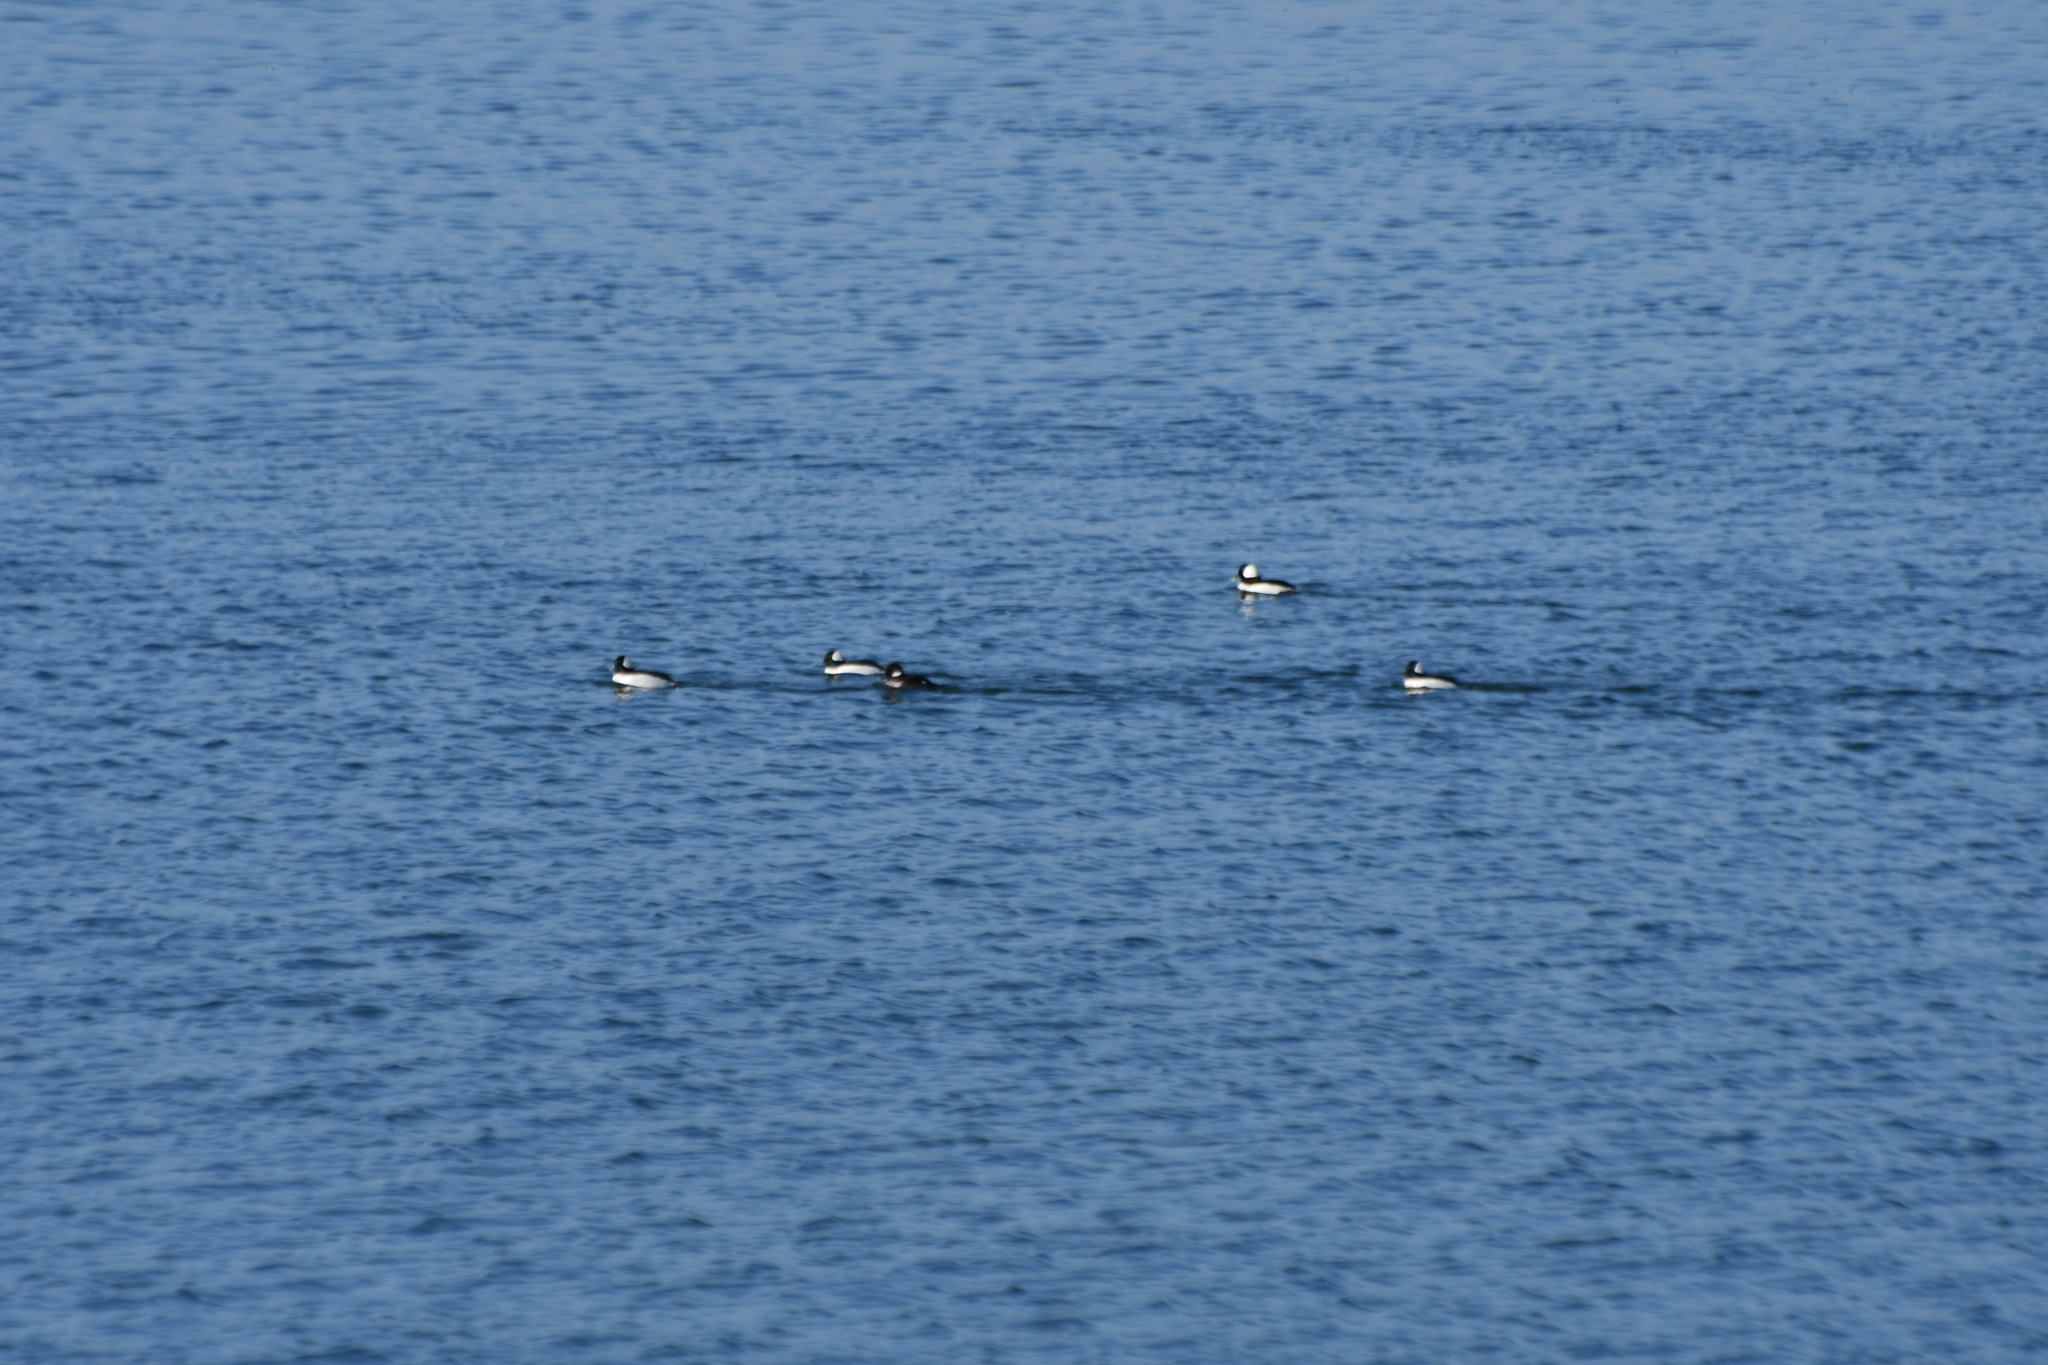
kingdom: Animalia
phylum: Chordata
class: Aves
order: Anseriformes
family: Anatidae
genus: Bucephala
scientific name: Bucephala albeola
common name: Bufflehead
